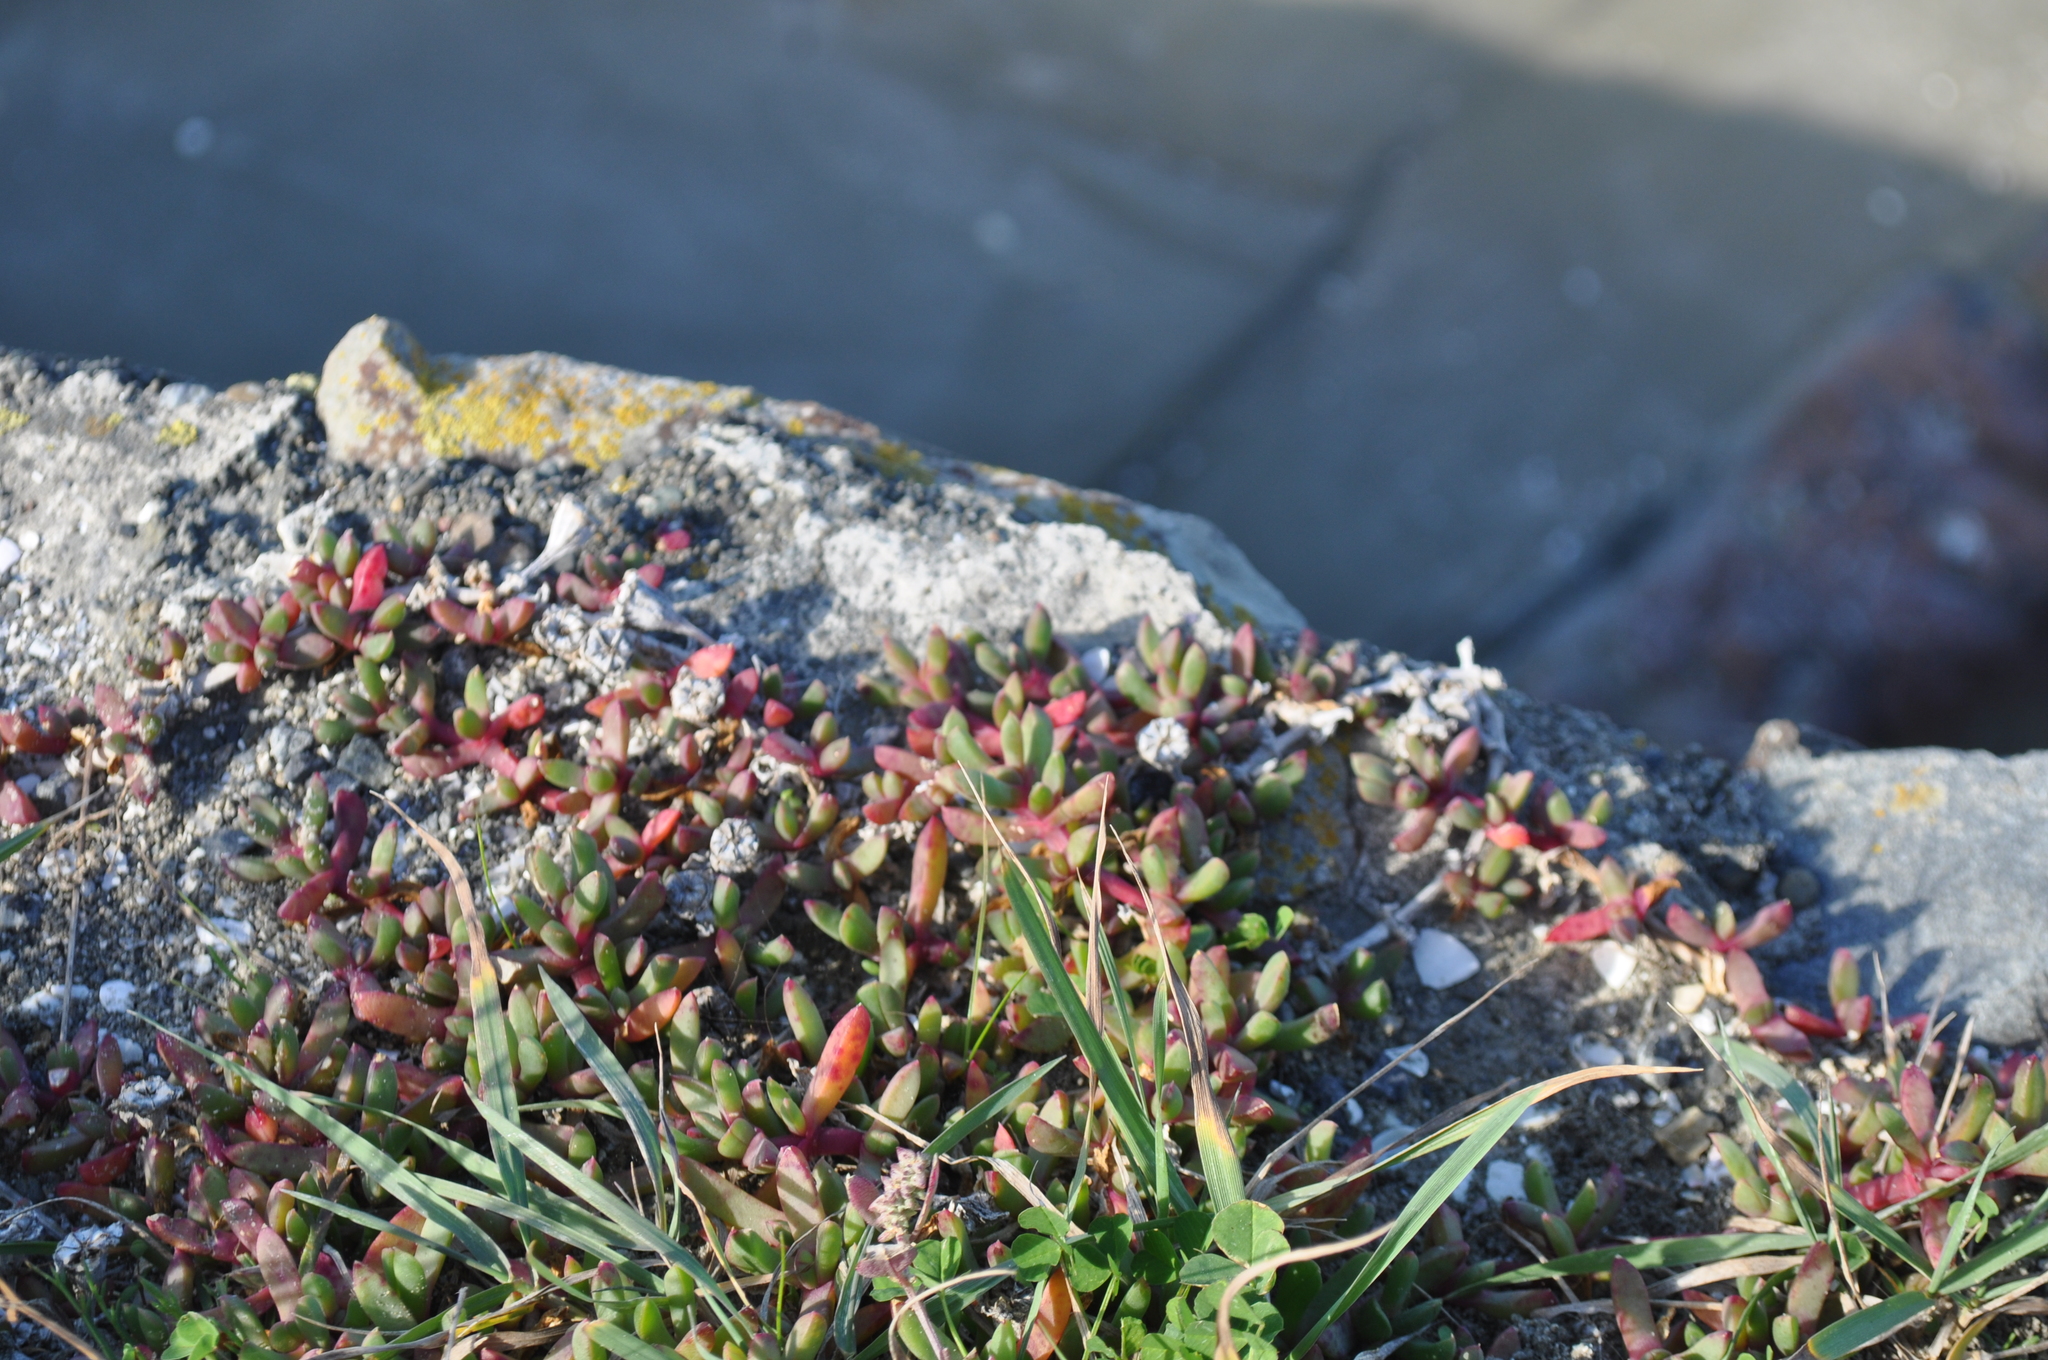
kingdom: Plantae
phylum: Tracheophyta
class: Magnoliopsida
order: Caryophyllales
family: Aizoaceae
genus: Disphyma
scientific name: Disphyma australe
